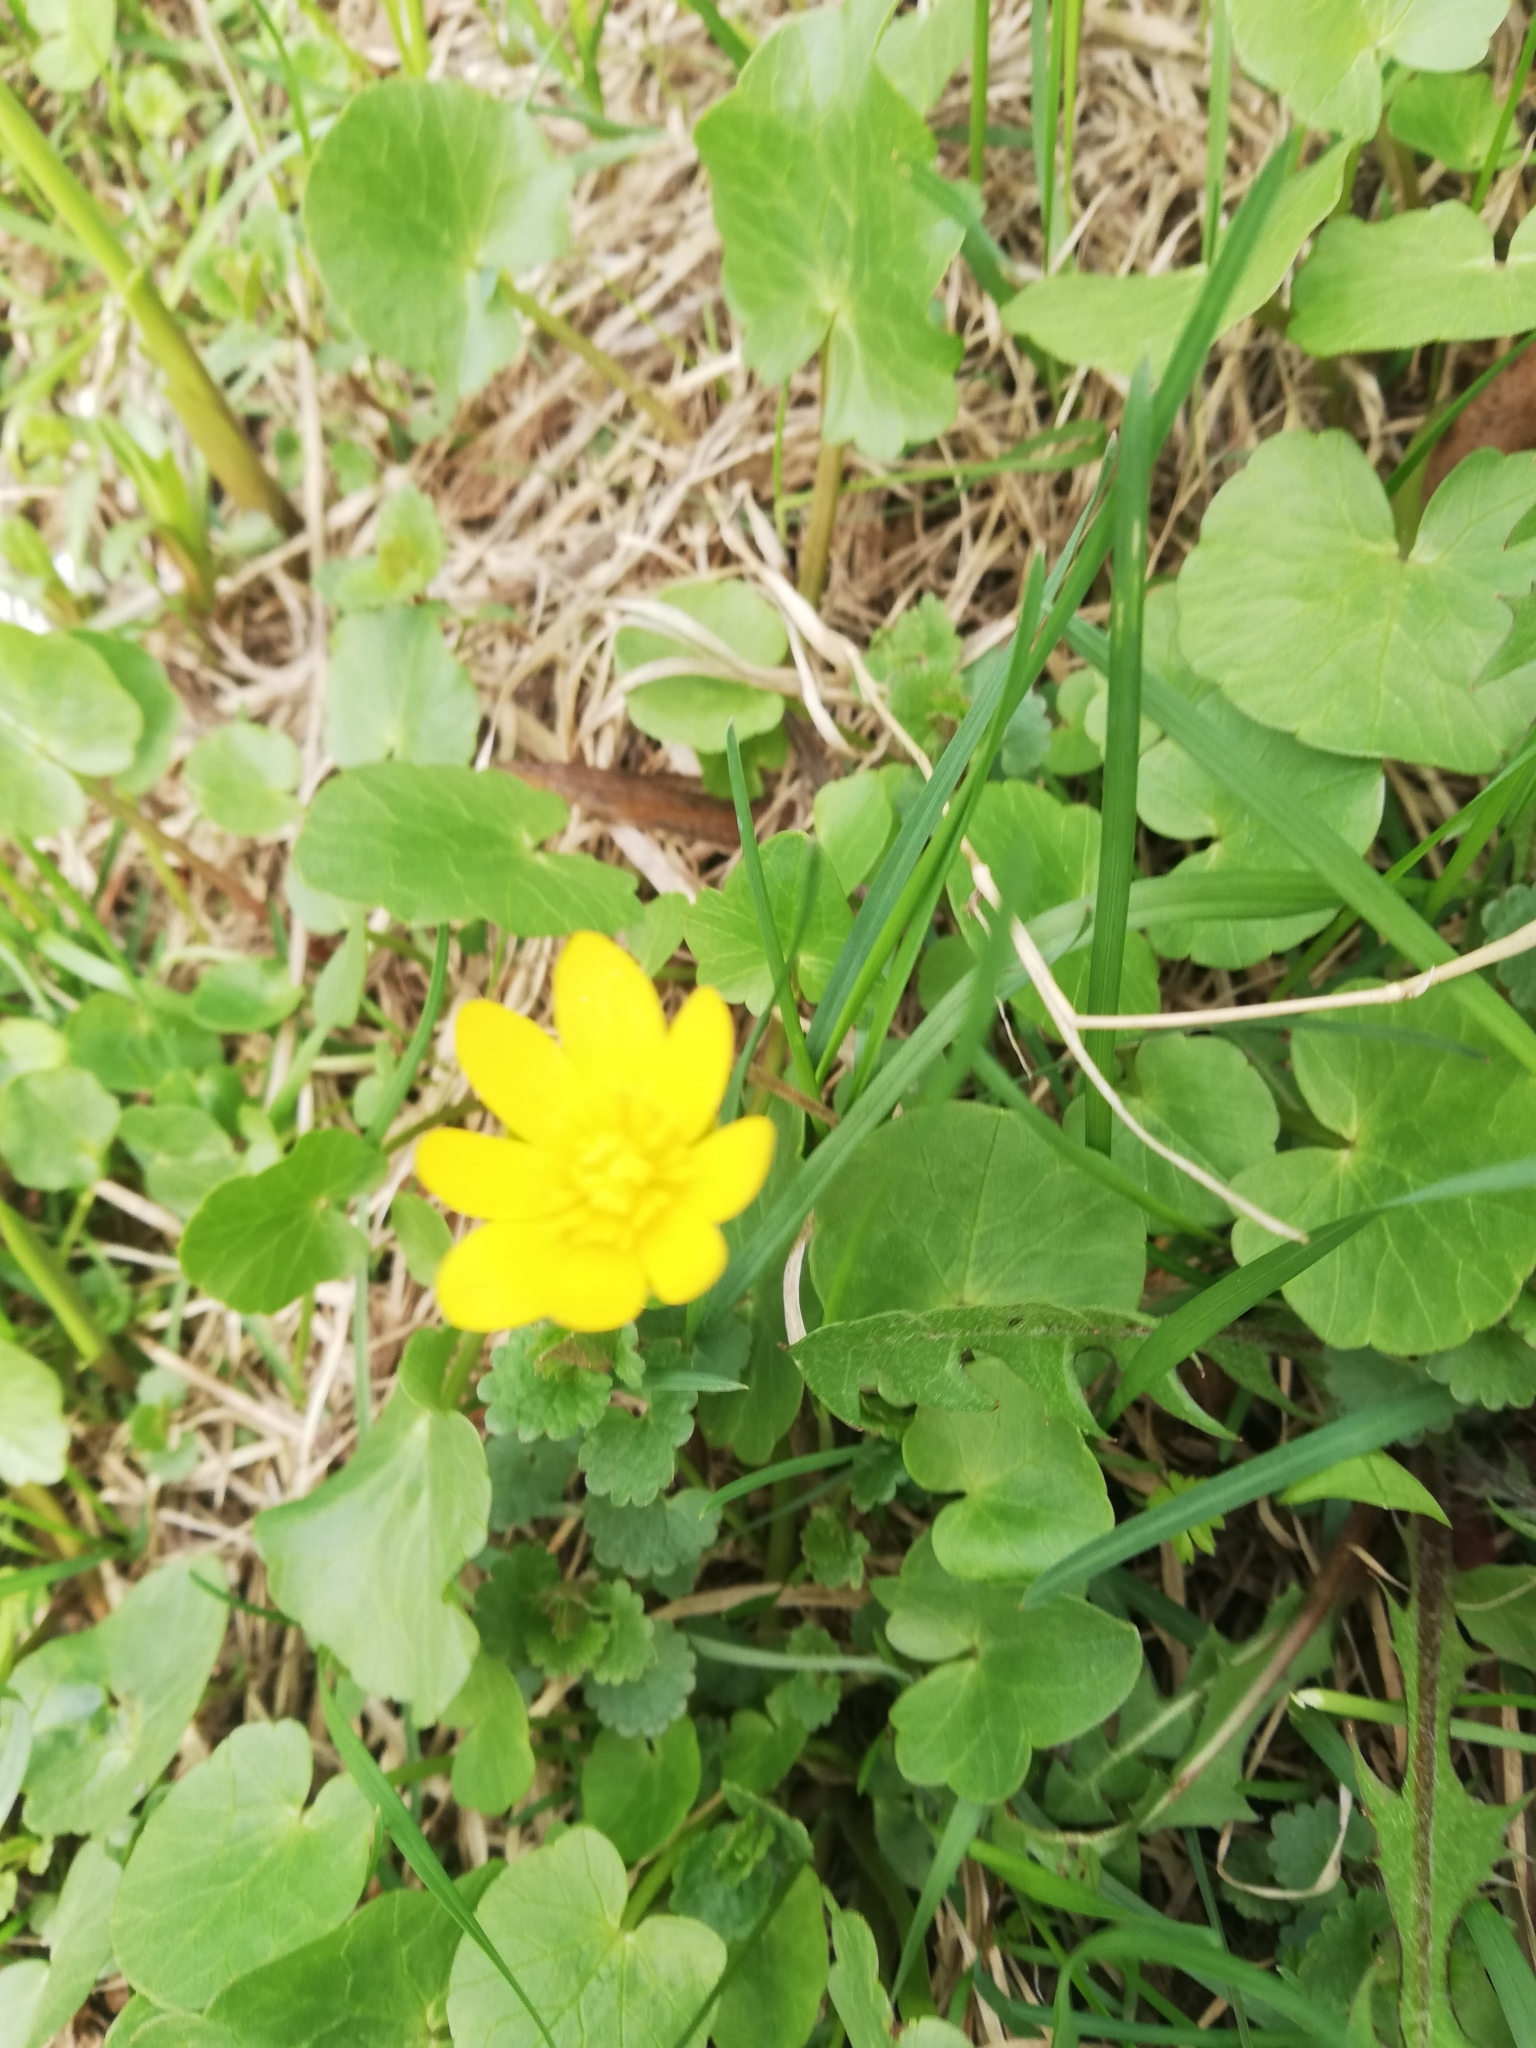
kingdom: Plantae
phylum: Tracheophyta
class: Magnoliopsida
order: Ranunculales
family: Ranunculaceae
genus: Ficaria
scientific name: Ficaria verna
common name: Lesser celandine
